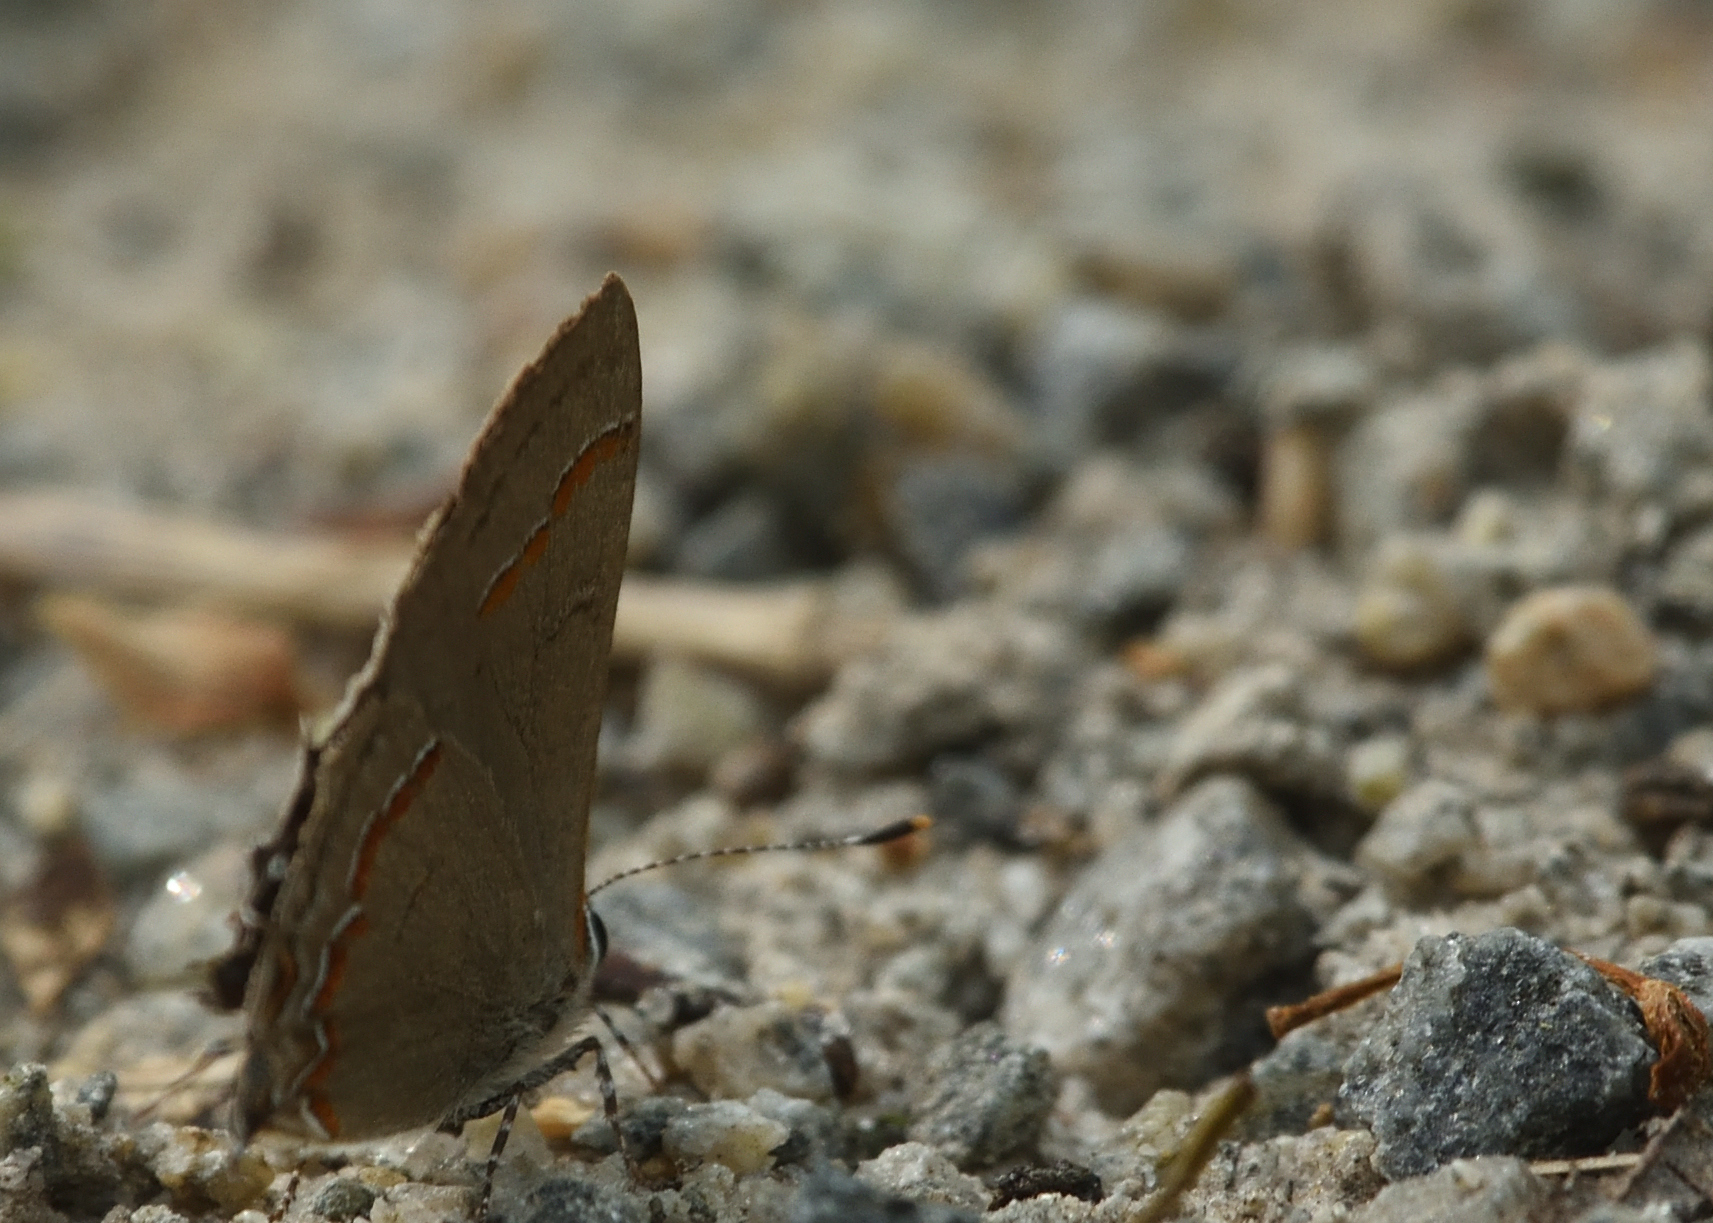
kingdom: Animalia
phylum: Arthropoda
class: Insecta
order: Lepidoptera
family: Lycaenidae
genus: Calycopis
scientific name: Calycopis cecrops
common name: Red-banded hairstreak
